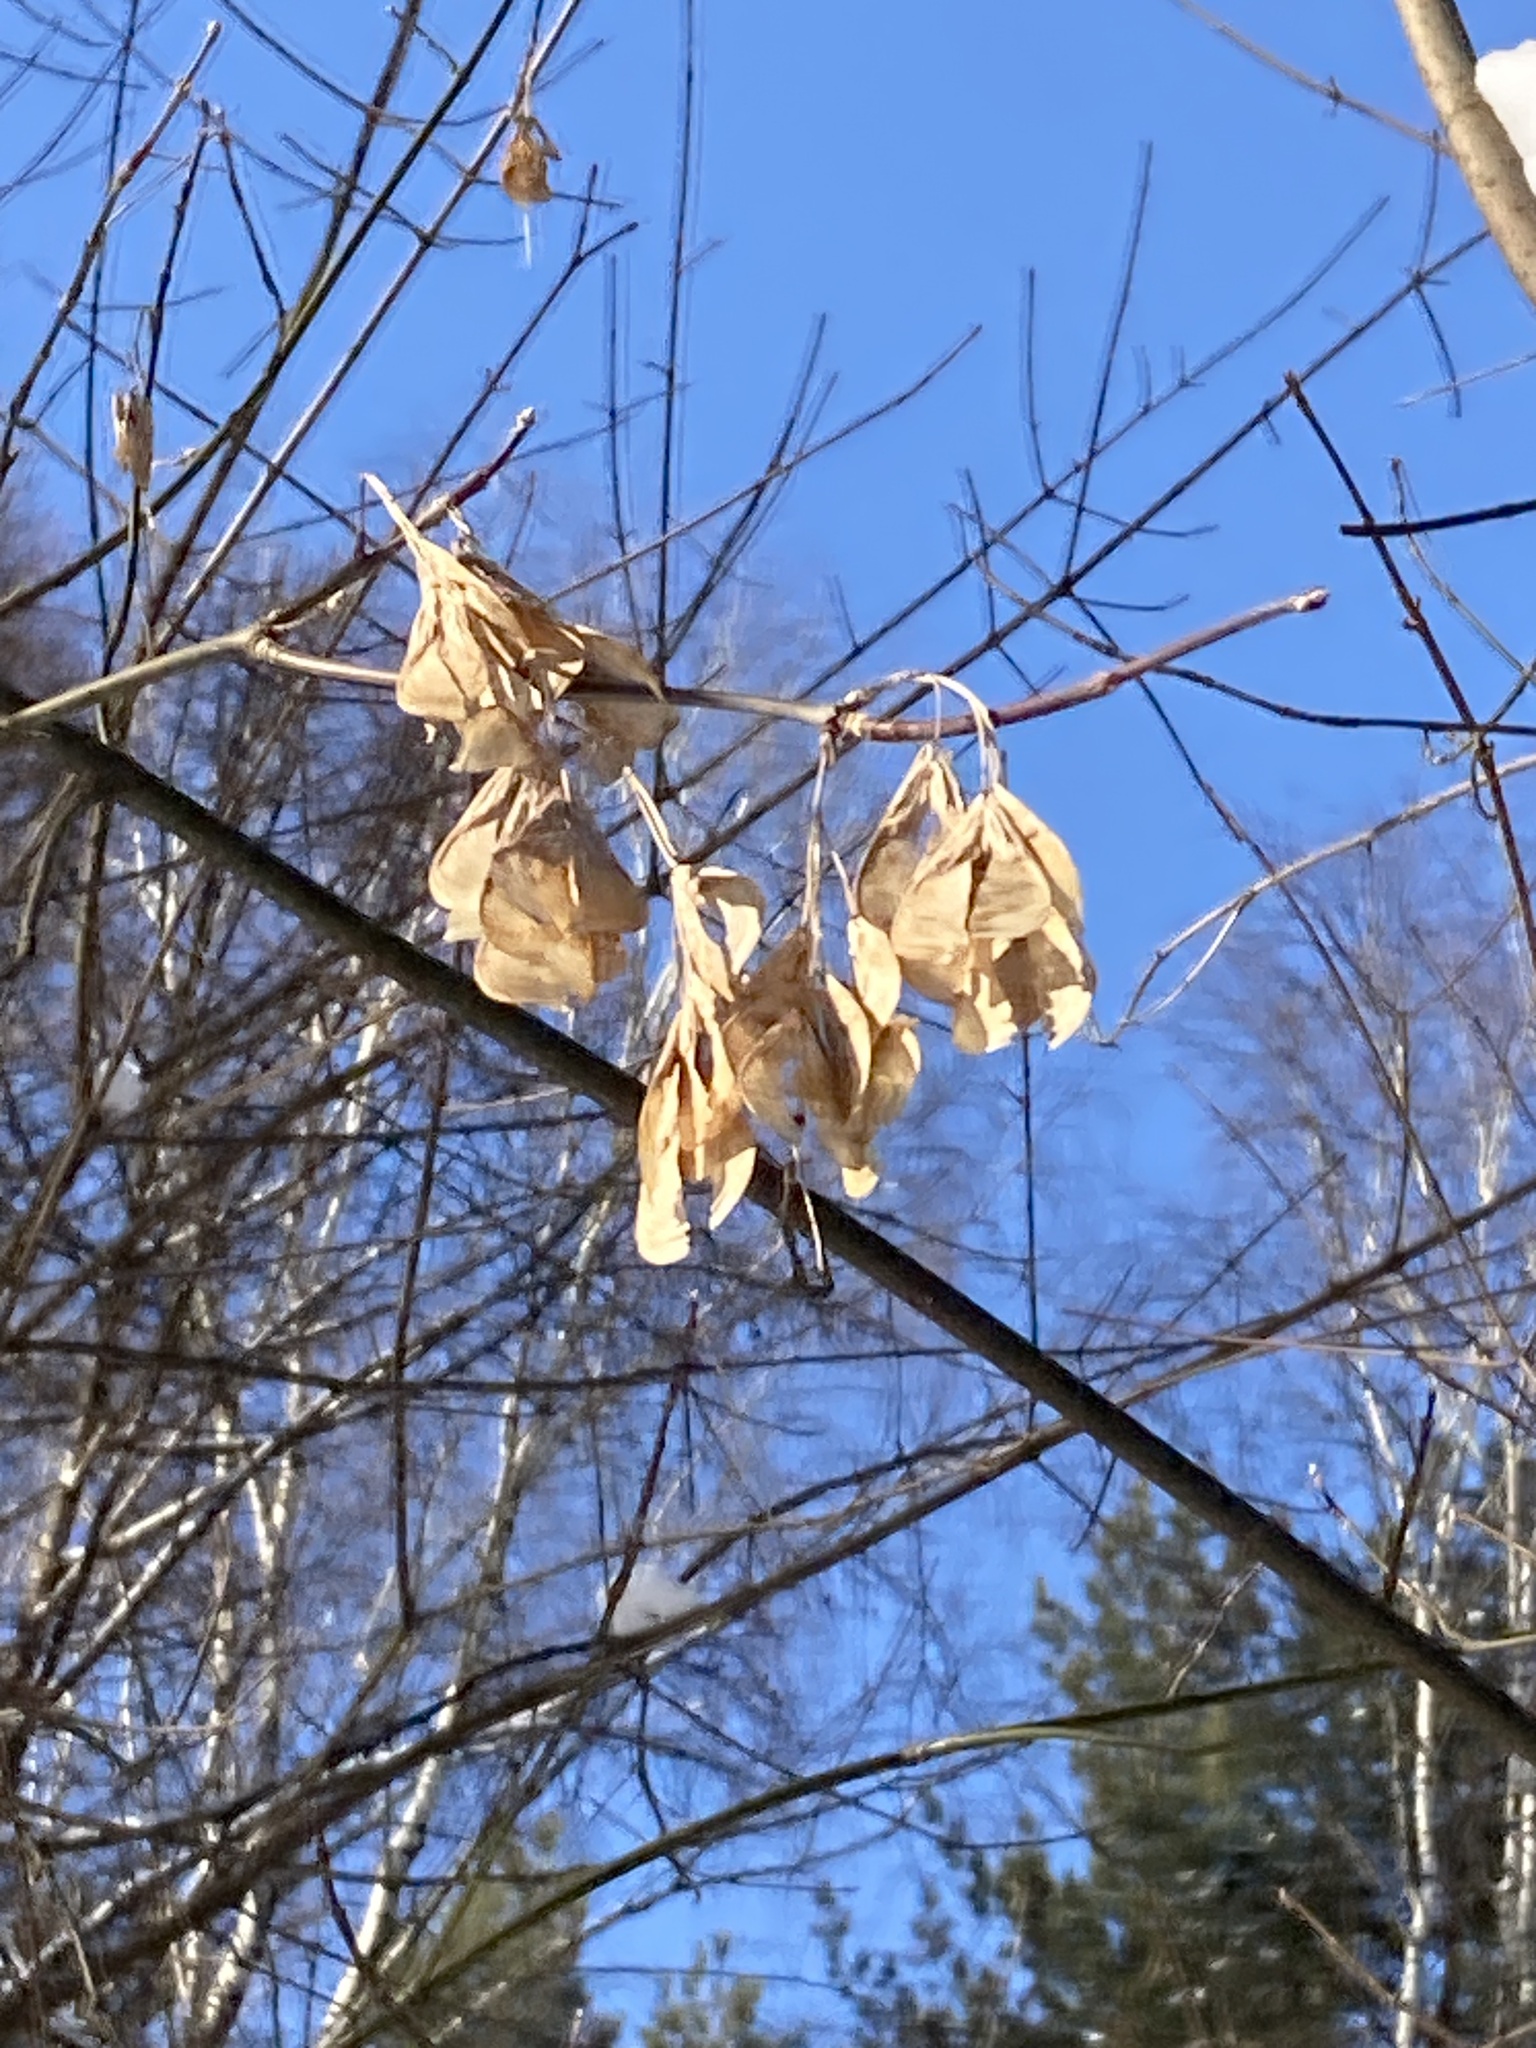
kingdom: Plantae
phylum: Tracheophyta
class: Magnoliopsida
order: Sapindales
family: Sapindaceae
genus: Acer
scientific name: Acer negundo
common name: Ashleaf maple
